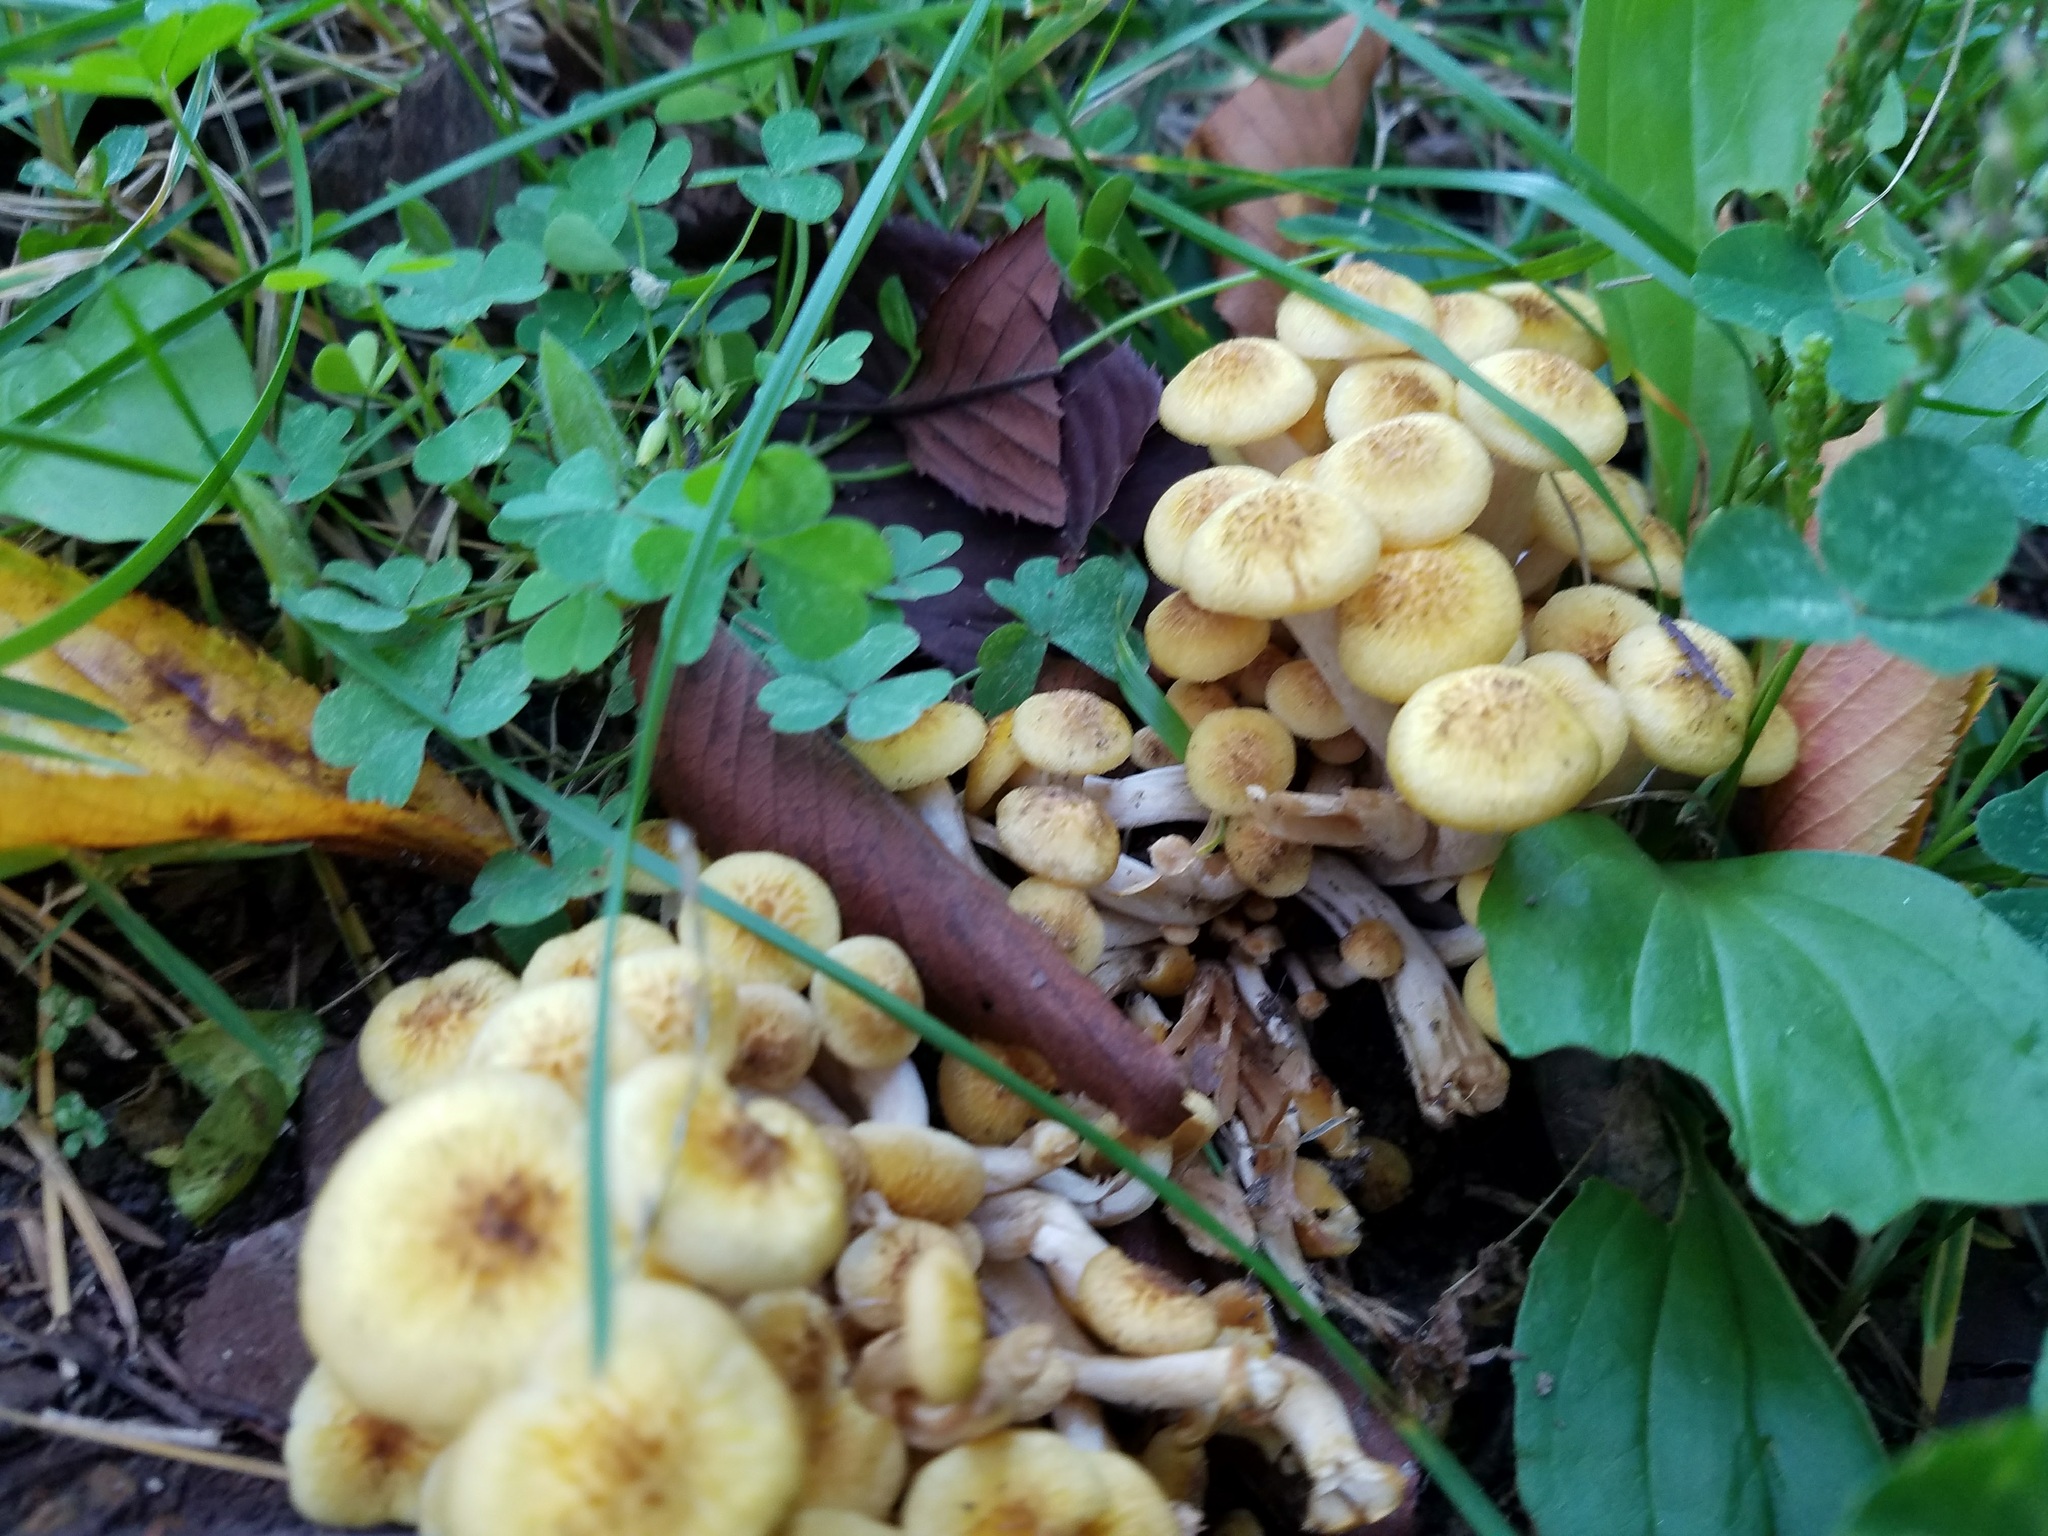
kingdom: Fungi
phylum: Basidiomycota
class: Agaricomycetes
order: Agaricales
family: Physalacriaceae
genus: Armillaria
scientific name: Armillaria mellea
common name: Honey fungus
